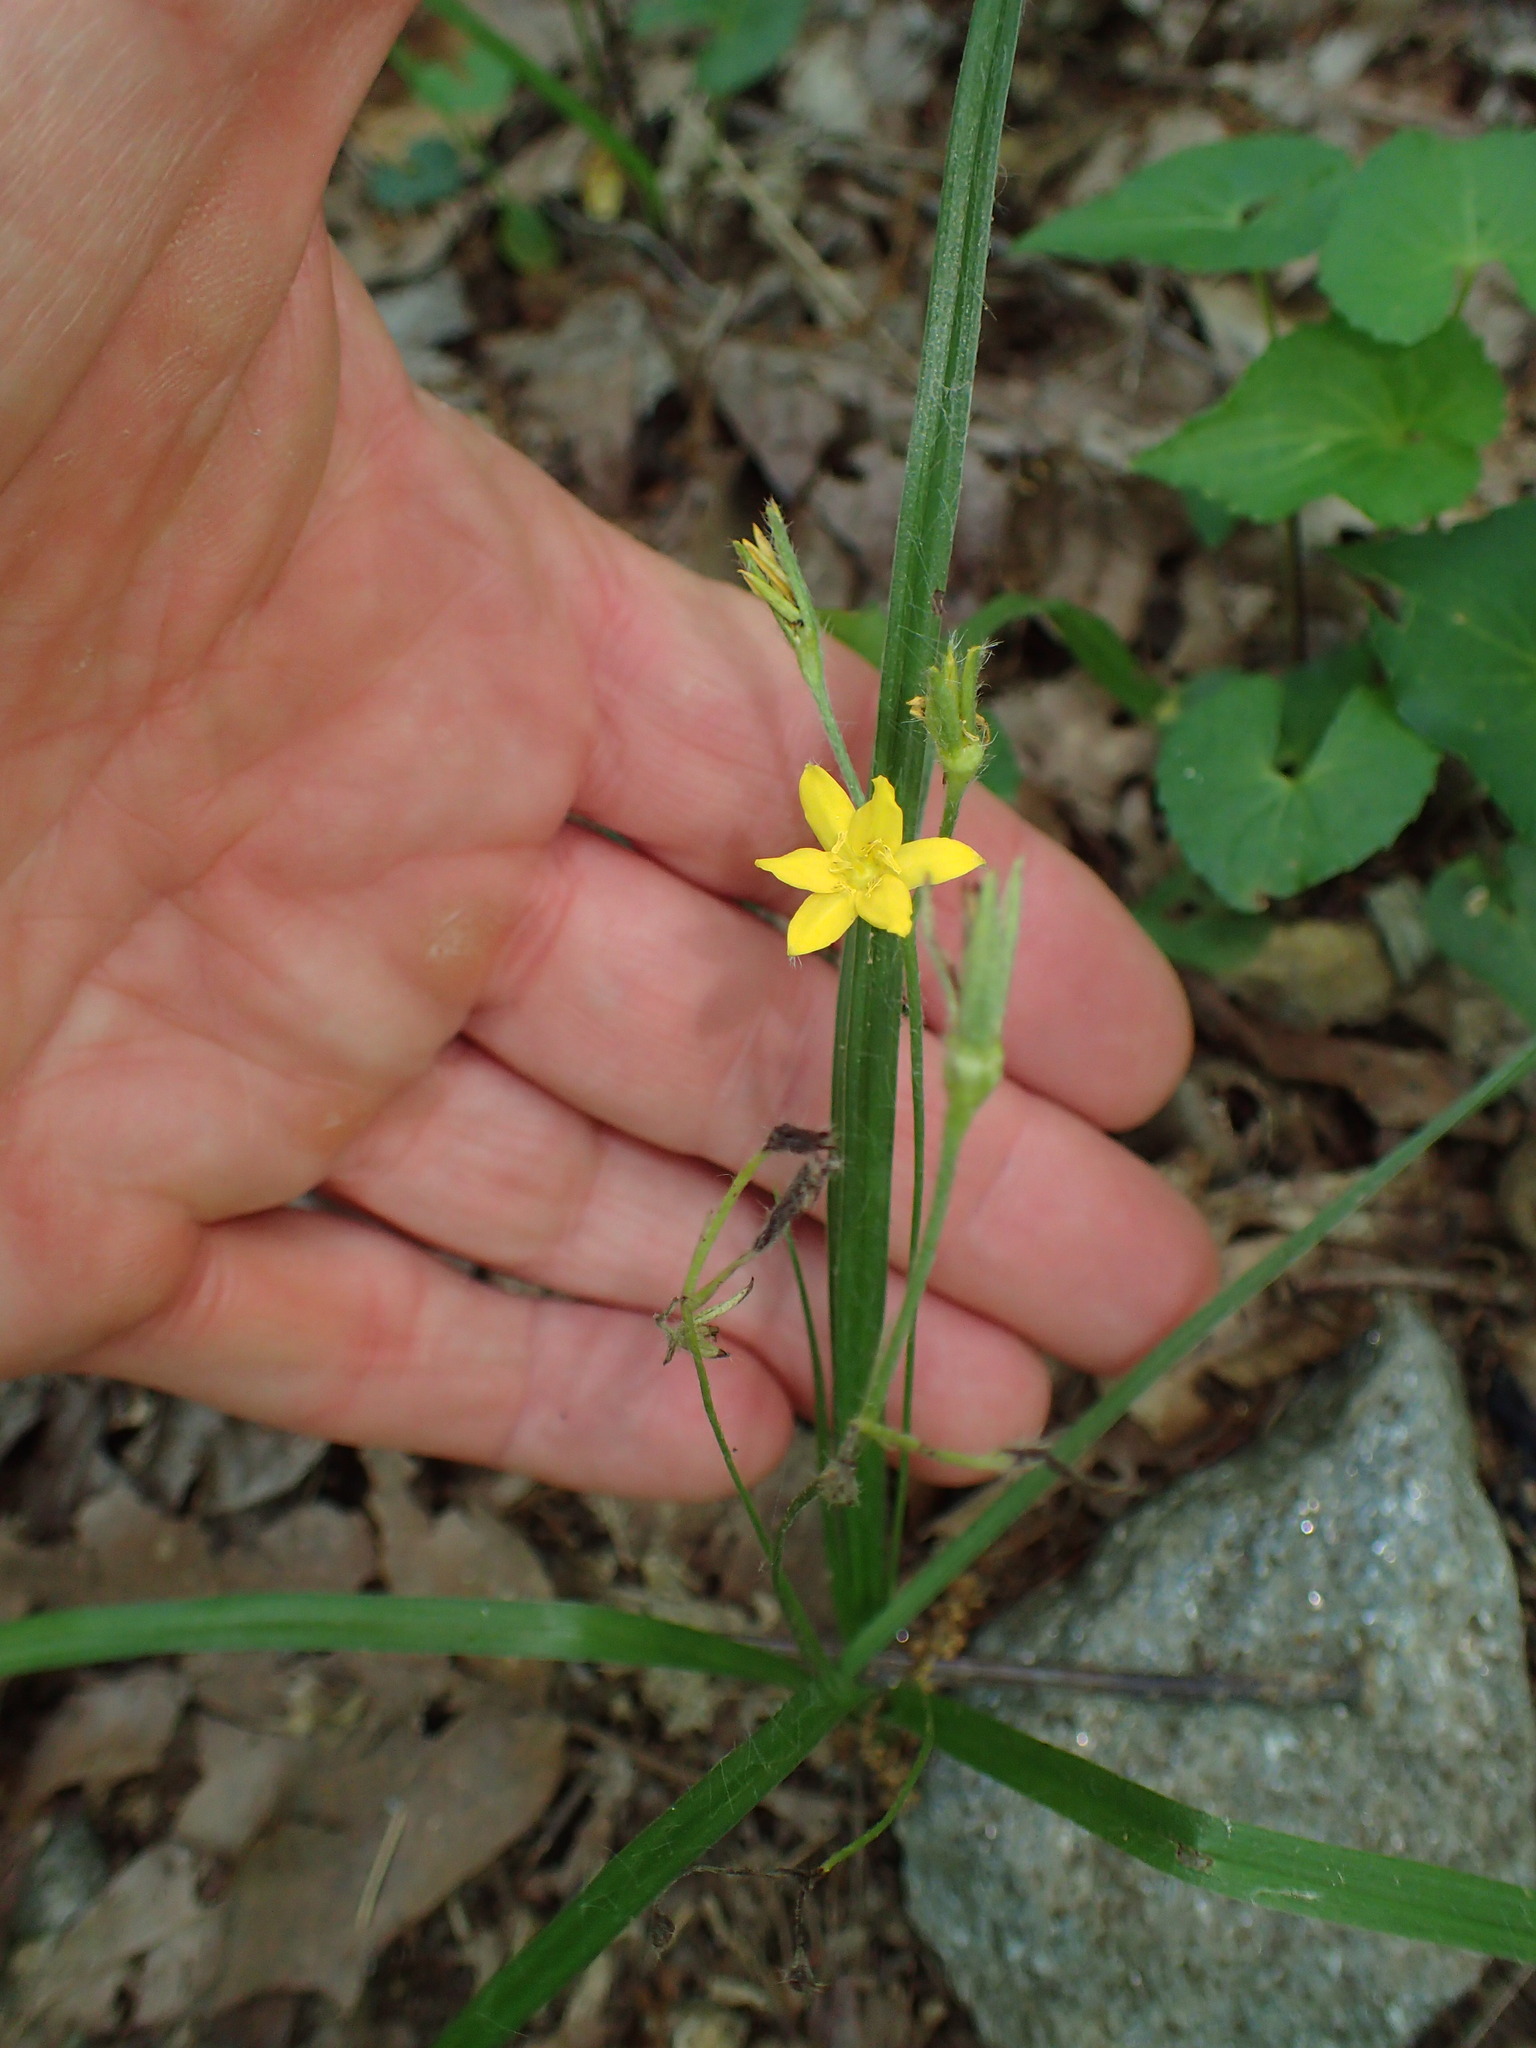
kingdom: Plantae
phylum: Tracheophyta
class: Liliopsida
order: Asparagales
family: Hypoxidaceae
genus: Hypoxis
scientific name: Hypoxis hirsuta
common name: Common goldstar
